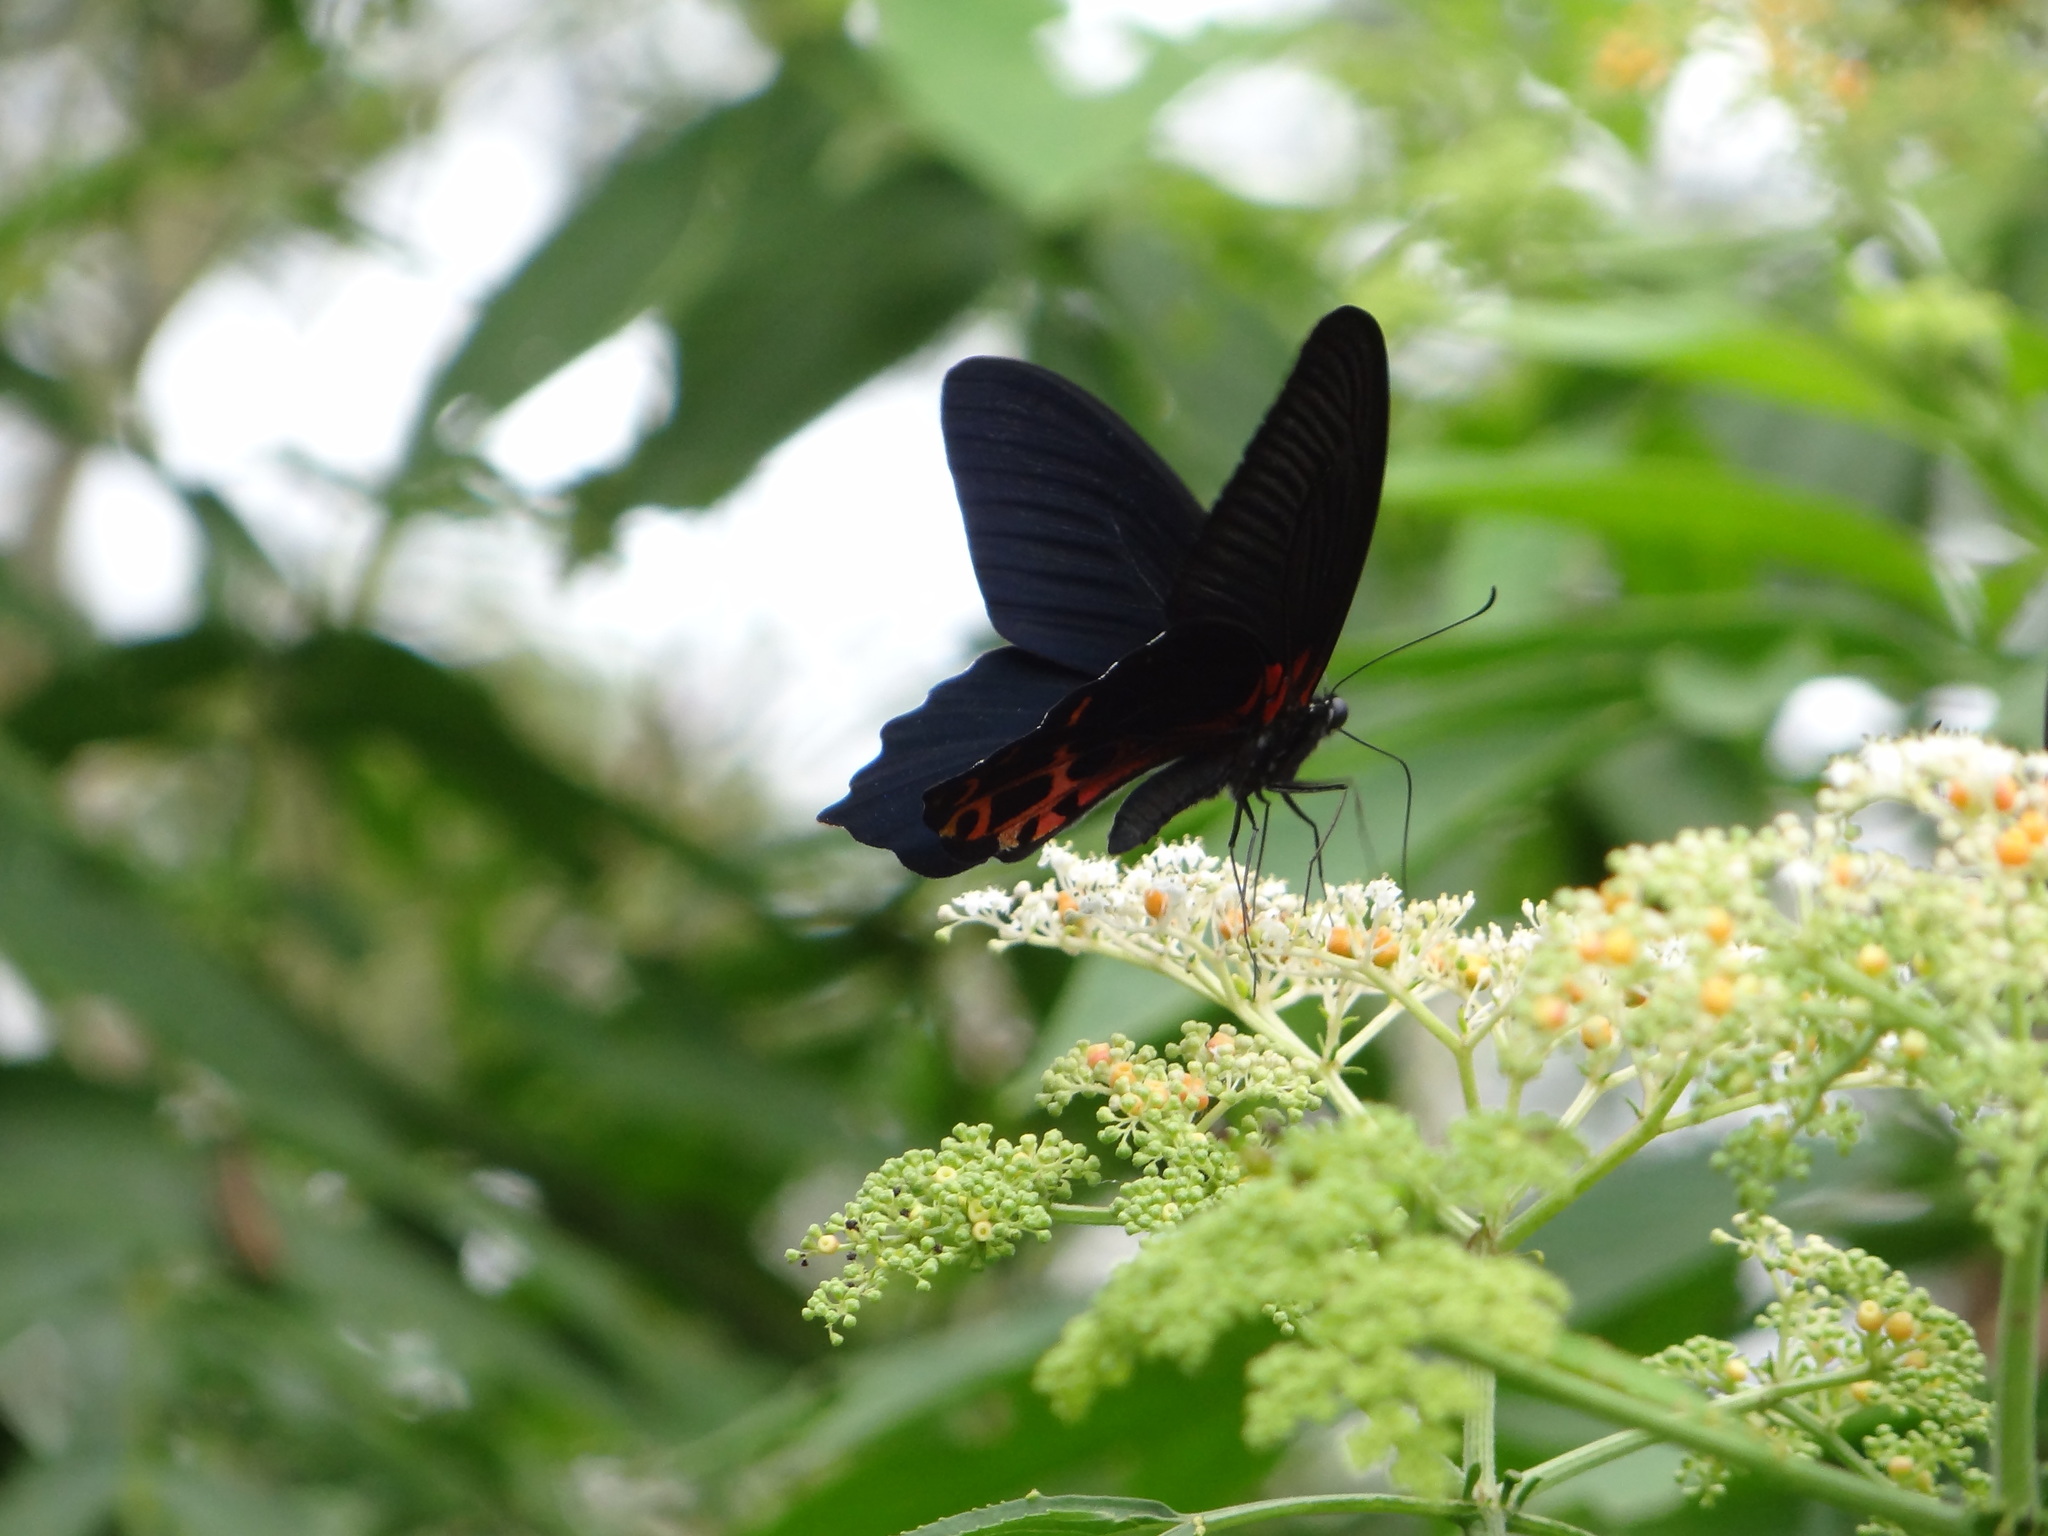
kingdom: Animalia
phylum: Arthropoda
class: Insecta
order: Lepidoptera
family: Papilionidae
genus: Papilio
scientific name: Papilio thaiwanus
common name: Formosan swallowtail
